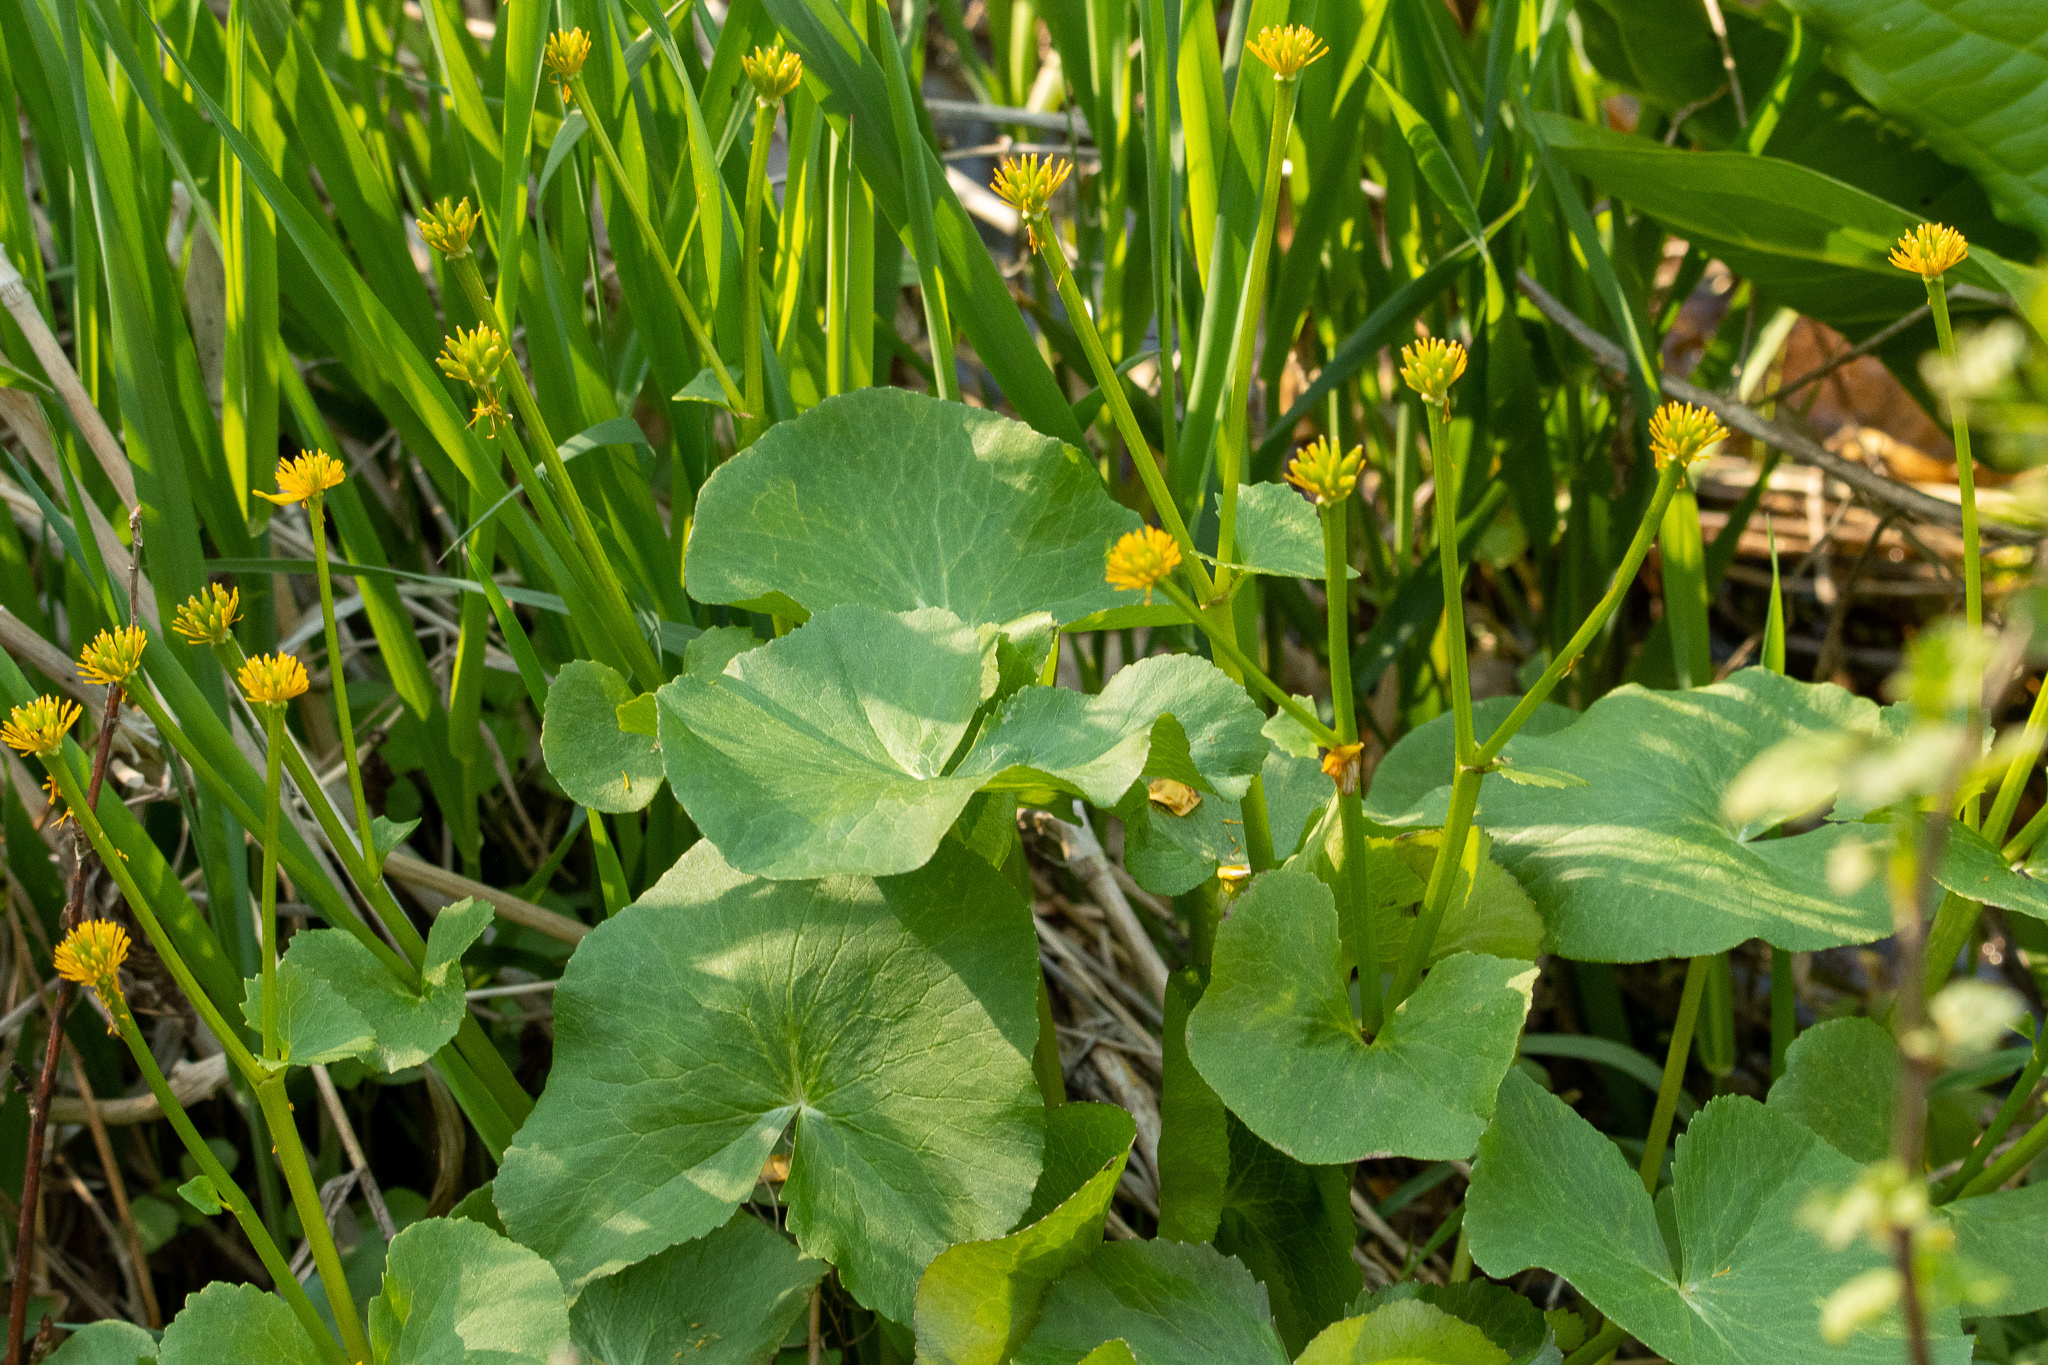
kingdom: Plantae
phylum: Tracheophyta
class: Magnoliopsida
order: Ranunculales
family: Ranunculaceae
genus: Caltha
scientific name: Caltha palustris
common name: Marsh marigold
